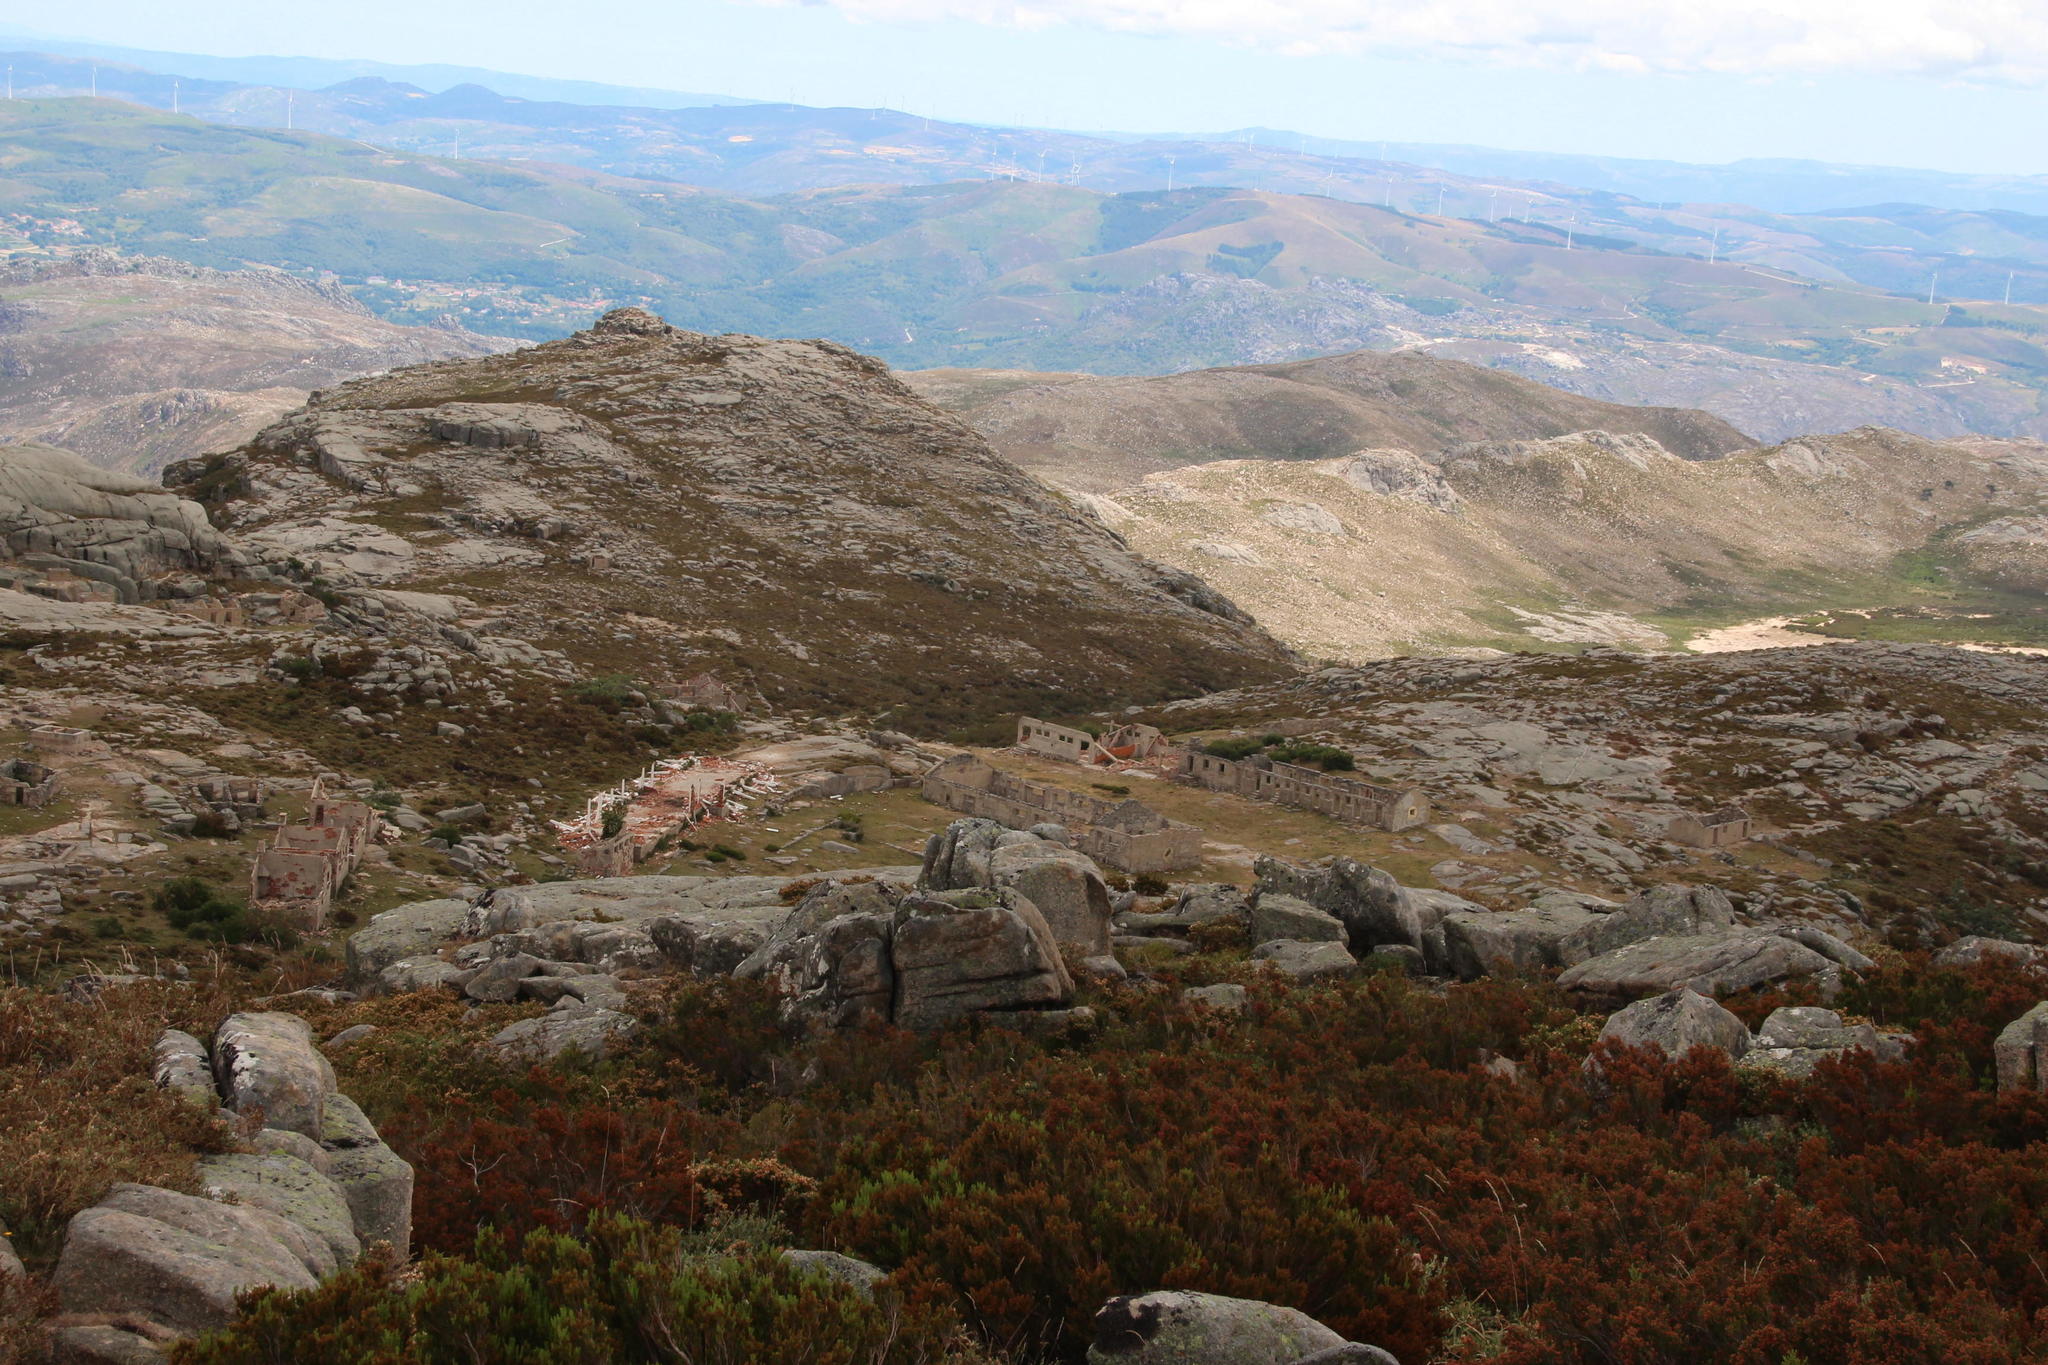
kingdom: Plantae
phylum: Tracheophyta
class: Magnoliopsida
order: Ericales
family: Ericaceae
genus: Erica
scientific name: Erica arborea
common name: Tree heath
